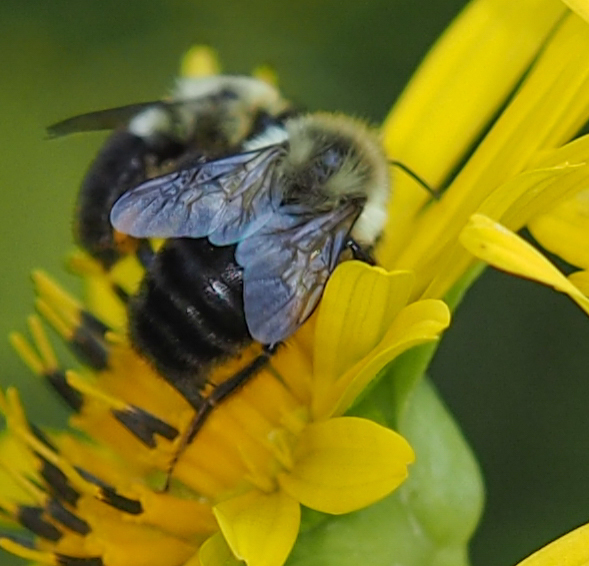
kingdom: Animalia
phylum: Arthropoda
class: Insecta
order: Hymenoptera
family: Apidae
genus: Bombus
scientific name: Bombus impatiens
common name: Common eastern bumble bee
